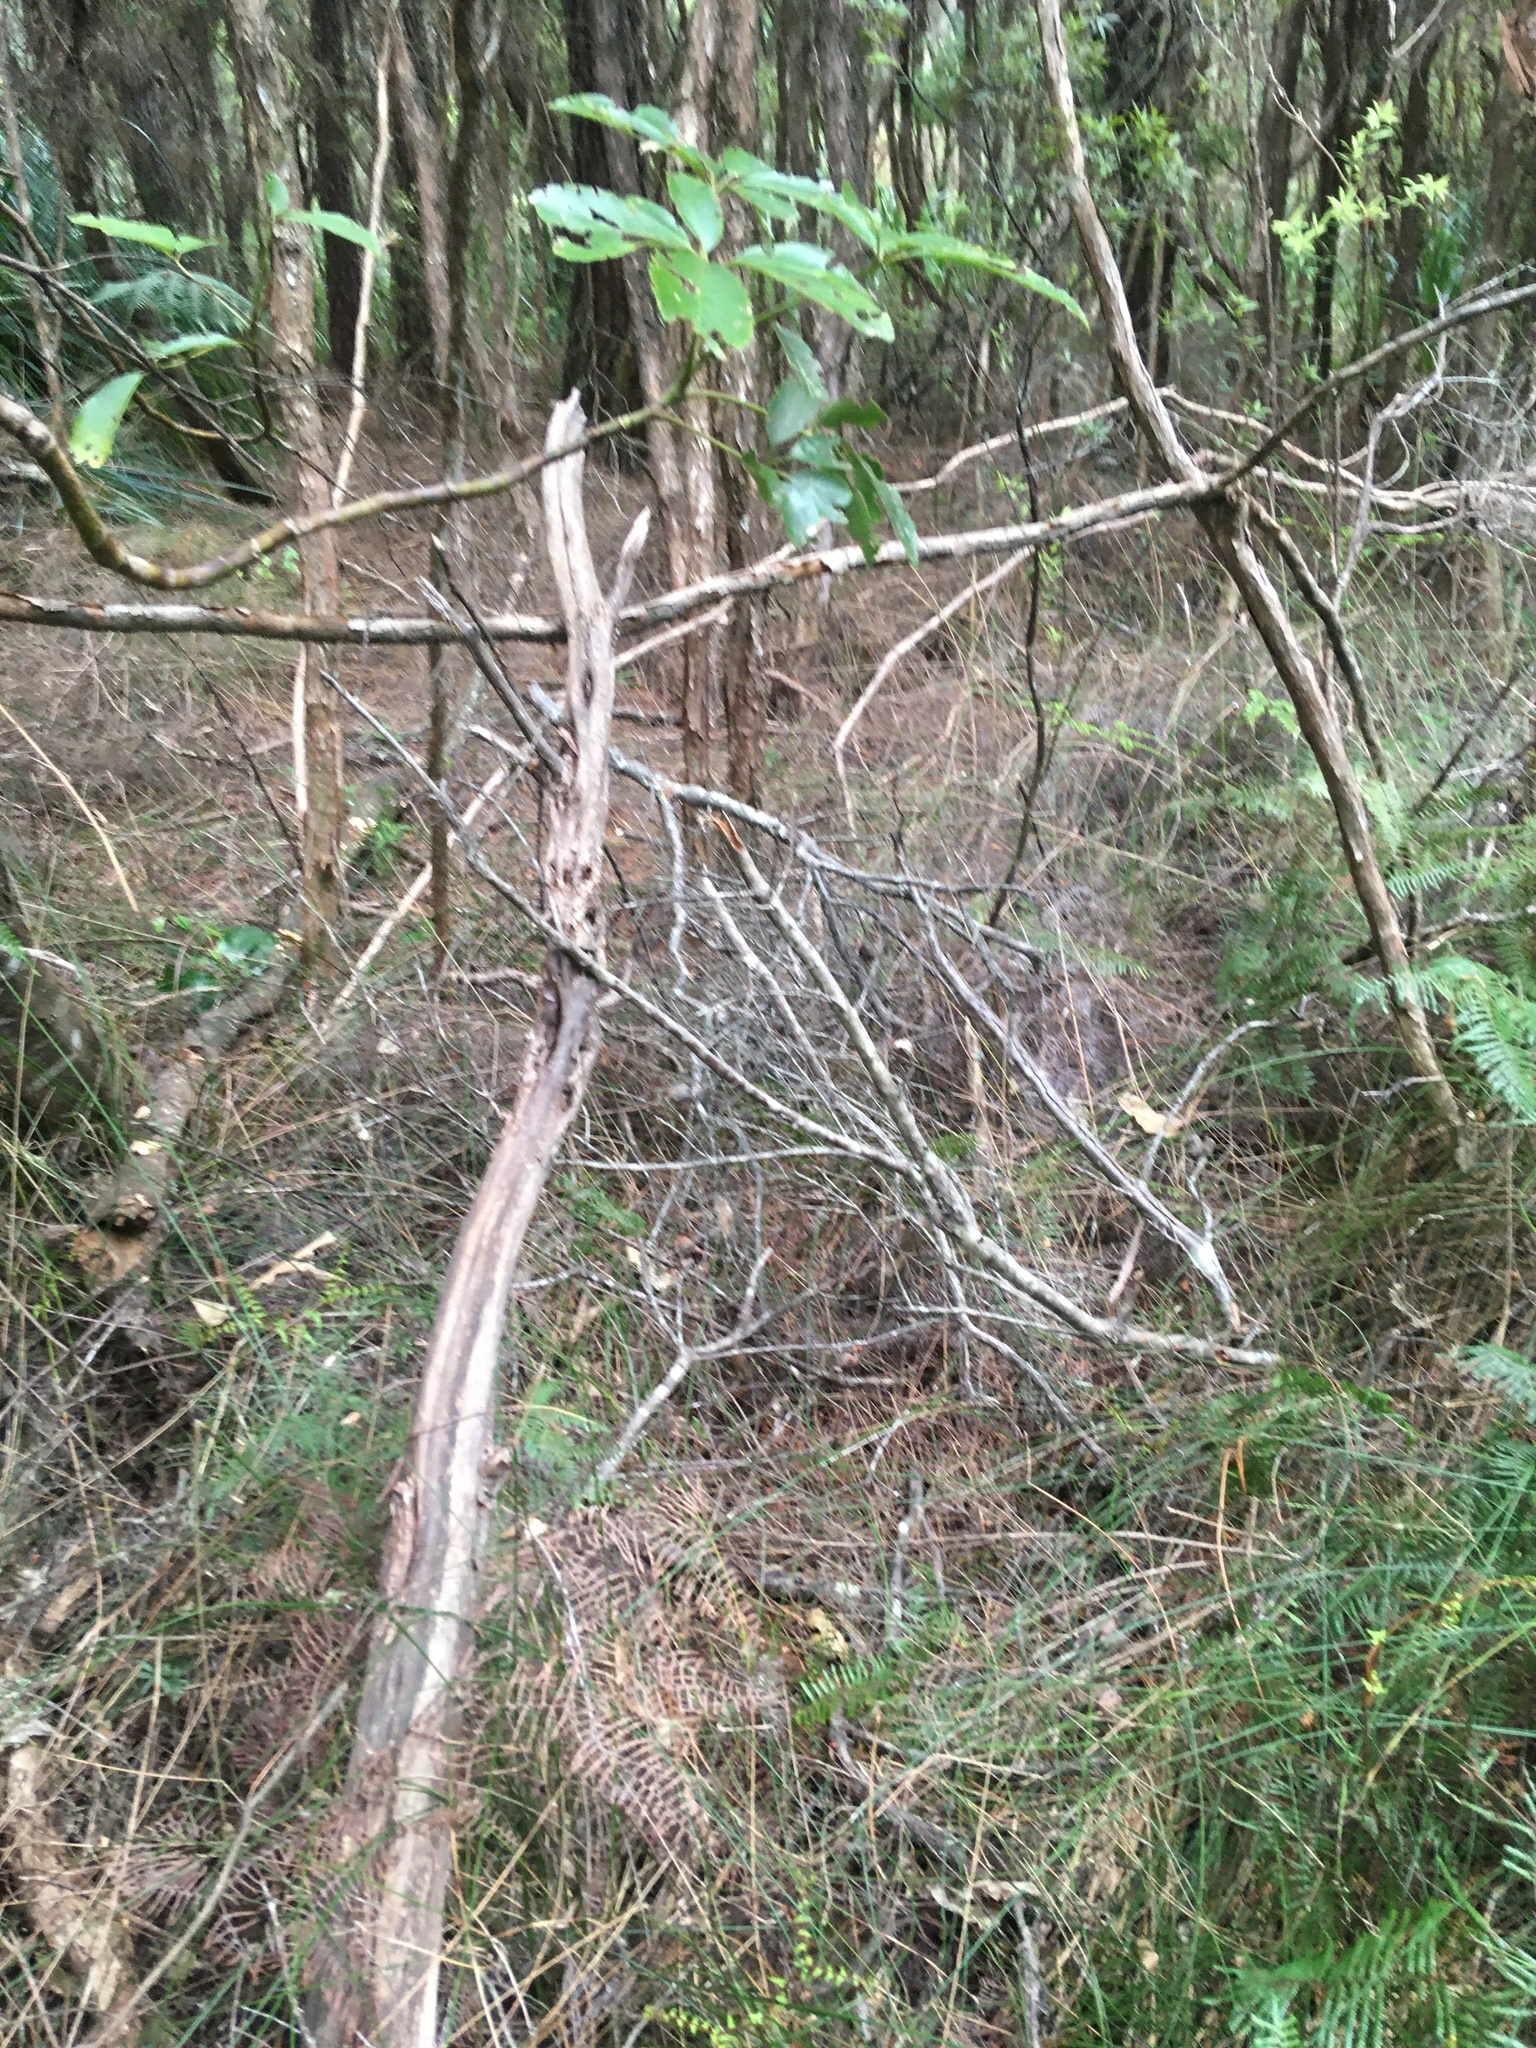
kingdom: Plantae
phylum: Tracheophyta
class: Magnoliopsida
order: Apiales
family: Araliaceae
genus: Neopanax
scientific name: Neopanax arboreus
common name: Five-fingers
